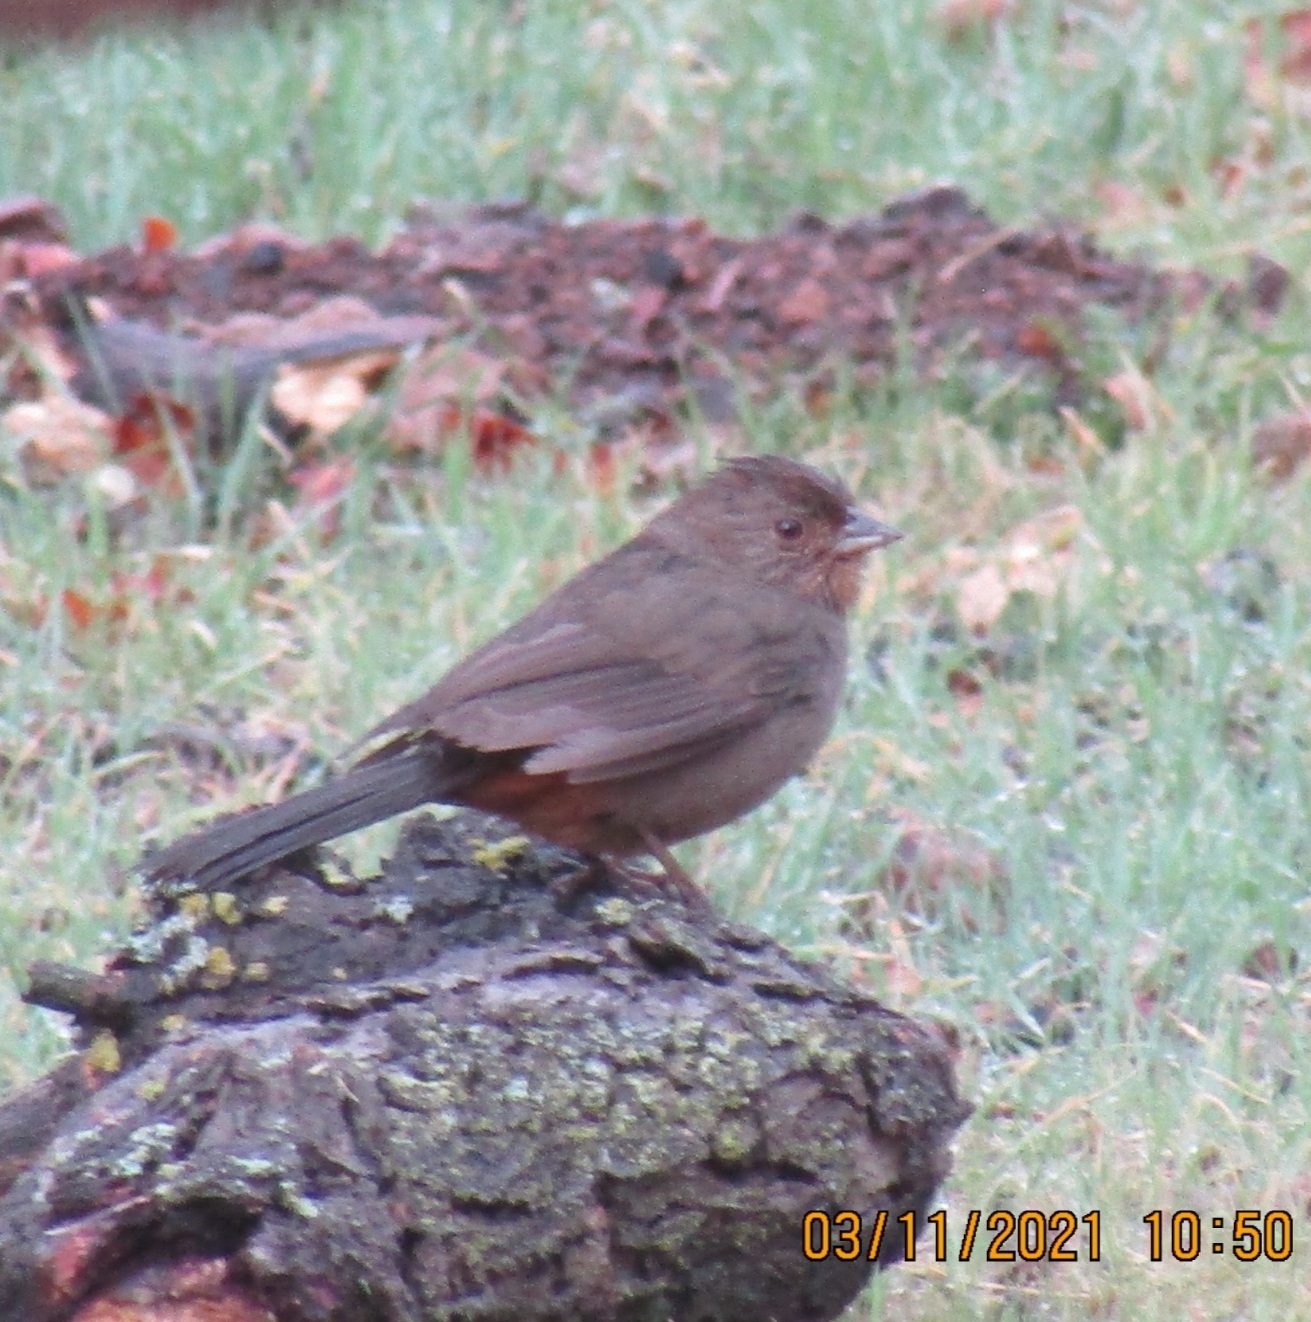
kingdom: Animalia
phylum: Chordata
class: Aves
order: Passeriformes
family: Passerellidae
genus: Melozone
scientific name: Melozone crissalis
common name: California towhee
